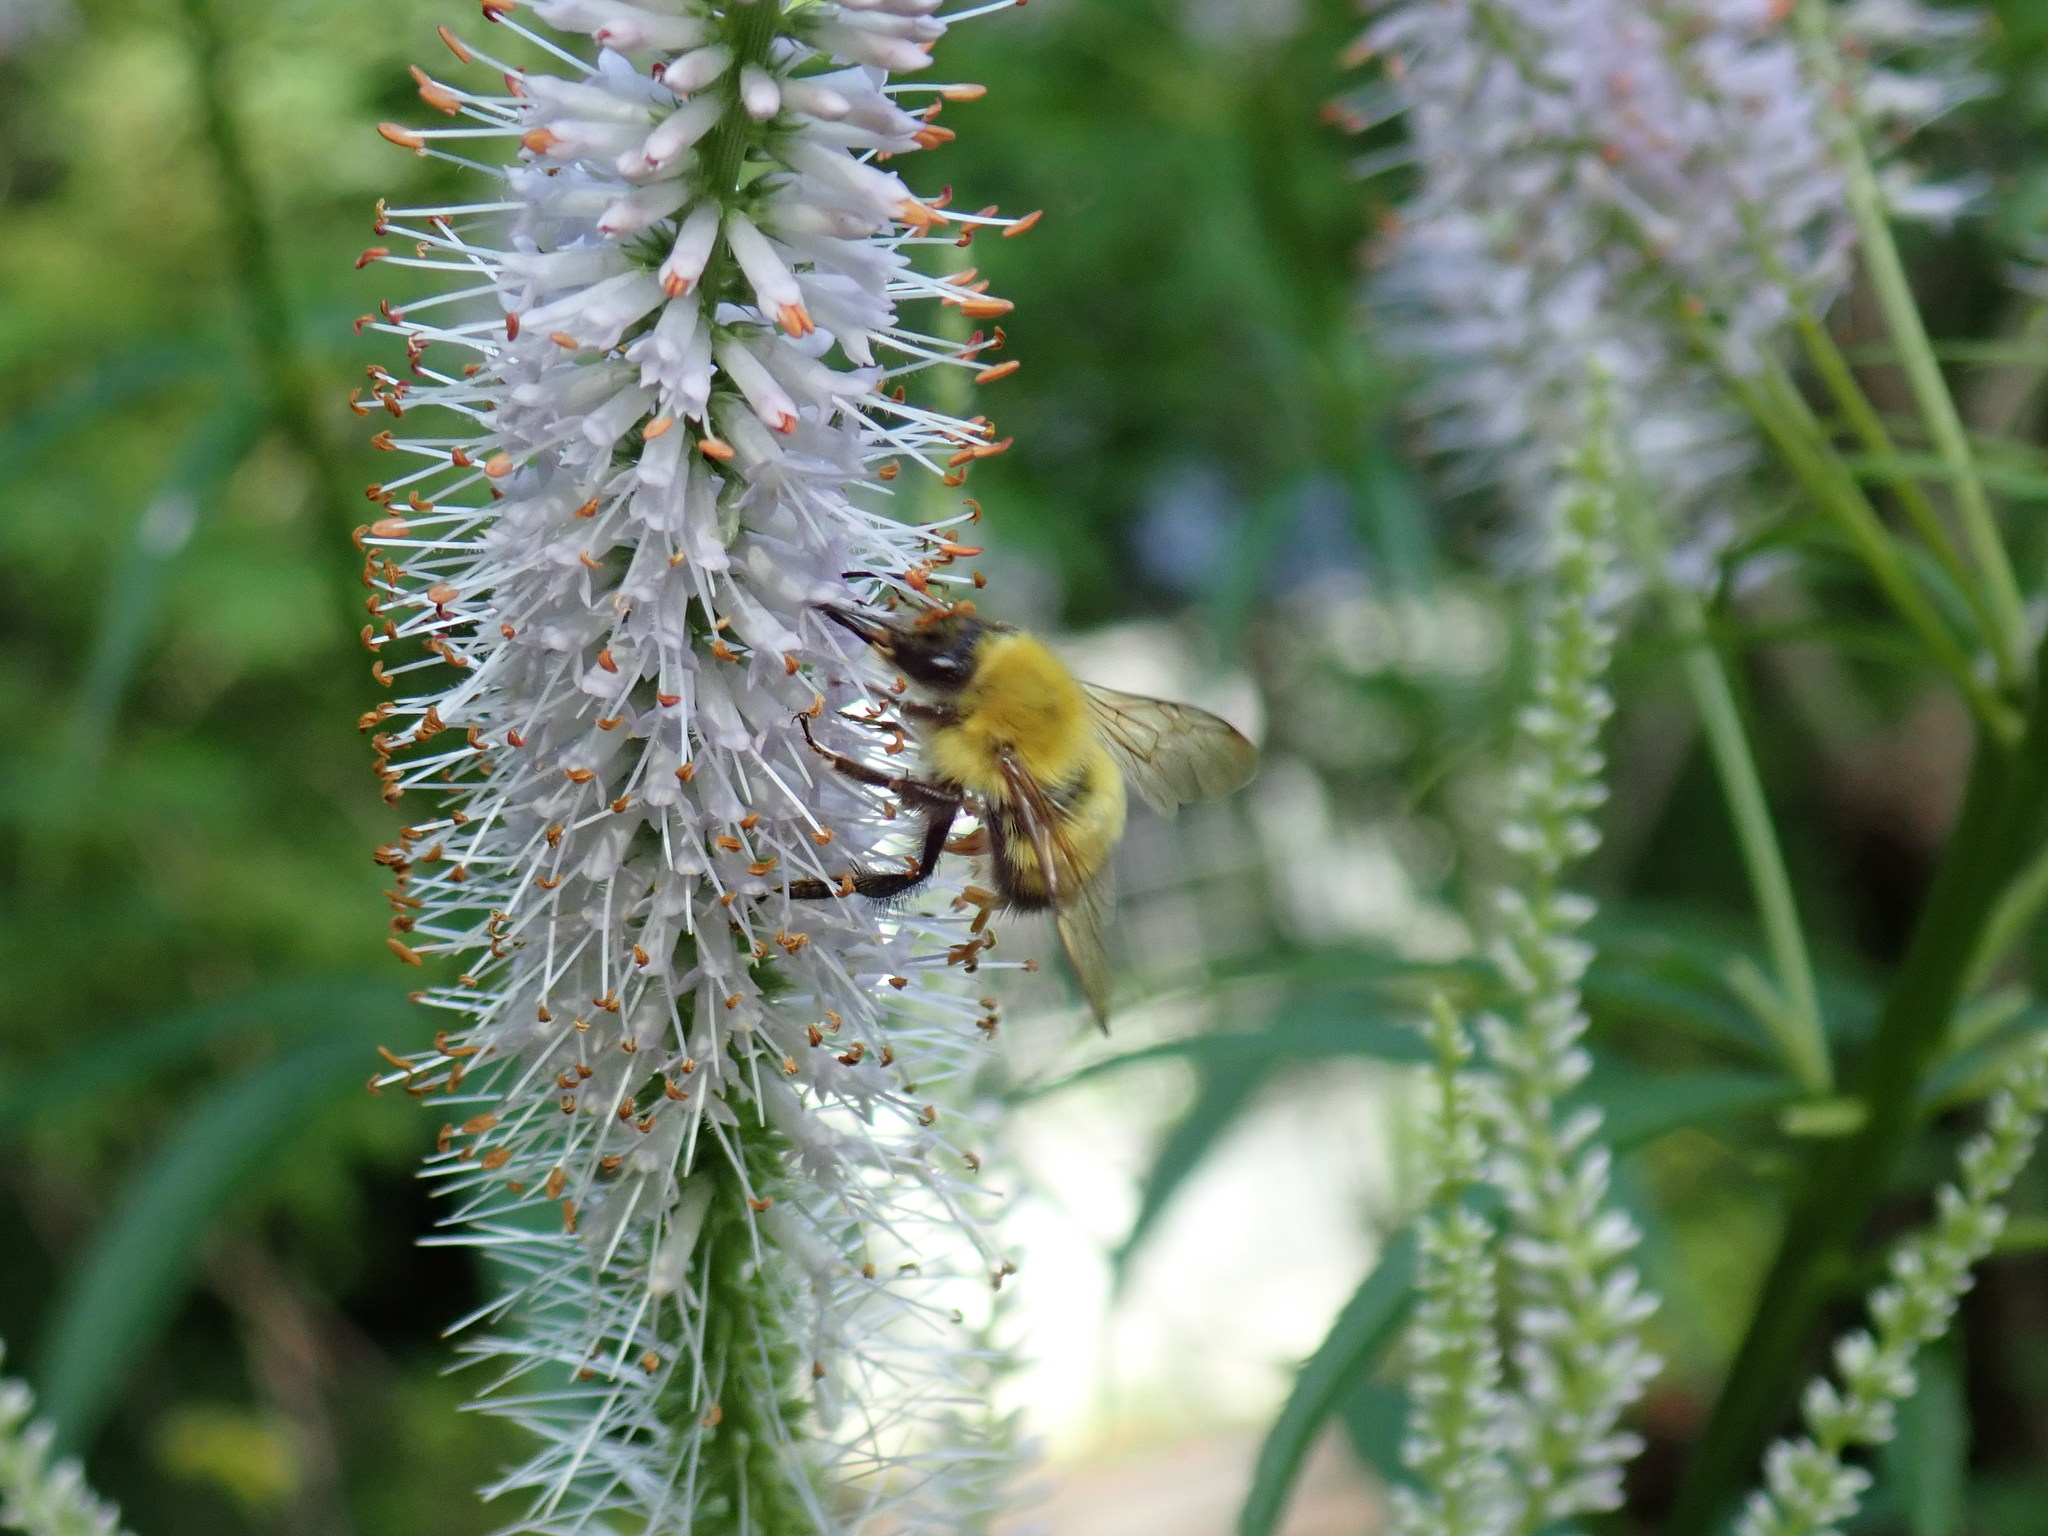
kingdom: Animalia
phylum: Arthropoda
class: Insecta
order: Hymenoptera
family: Apidae
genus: Bombus
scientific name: Bombus perplexus
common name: Confusing bumble bee
